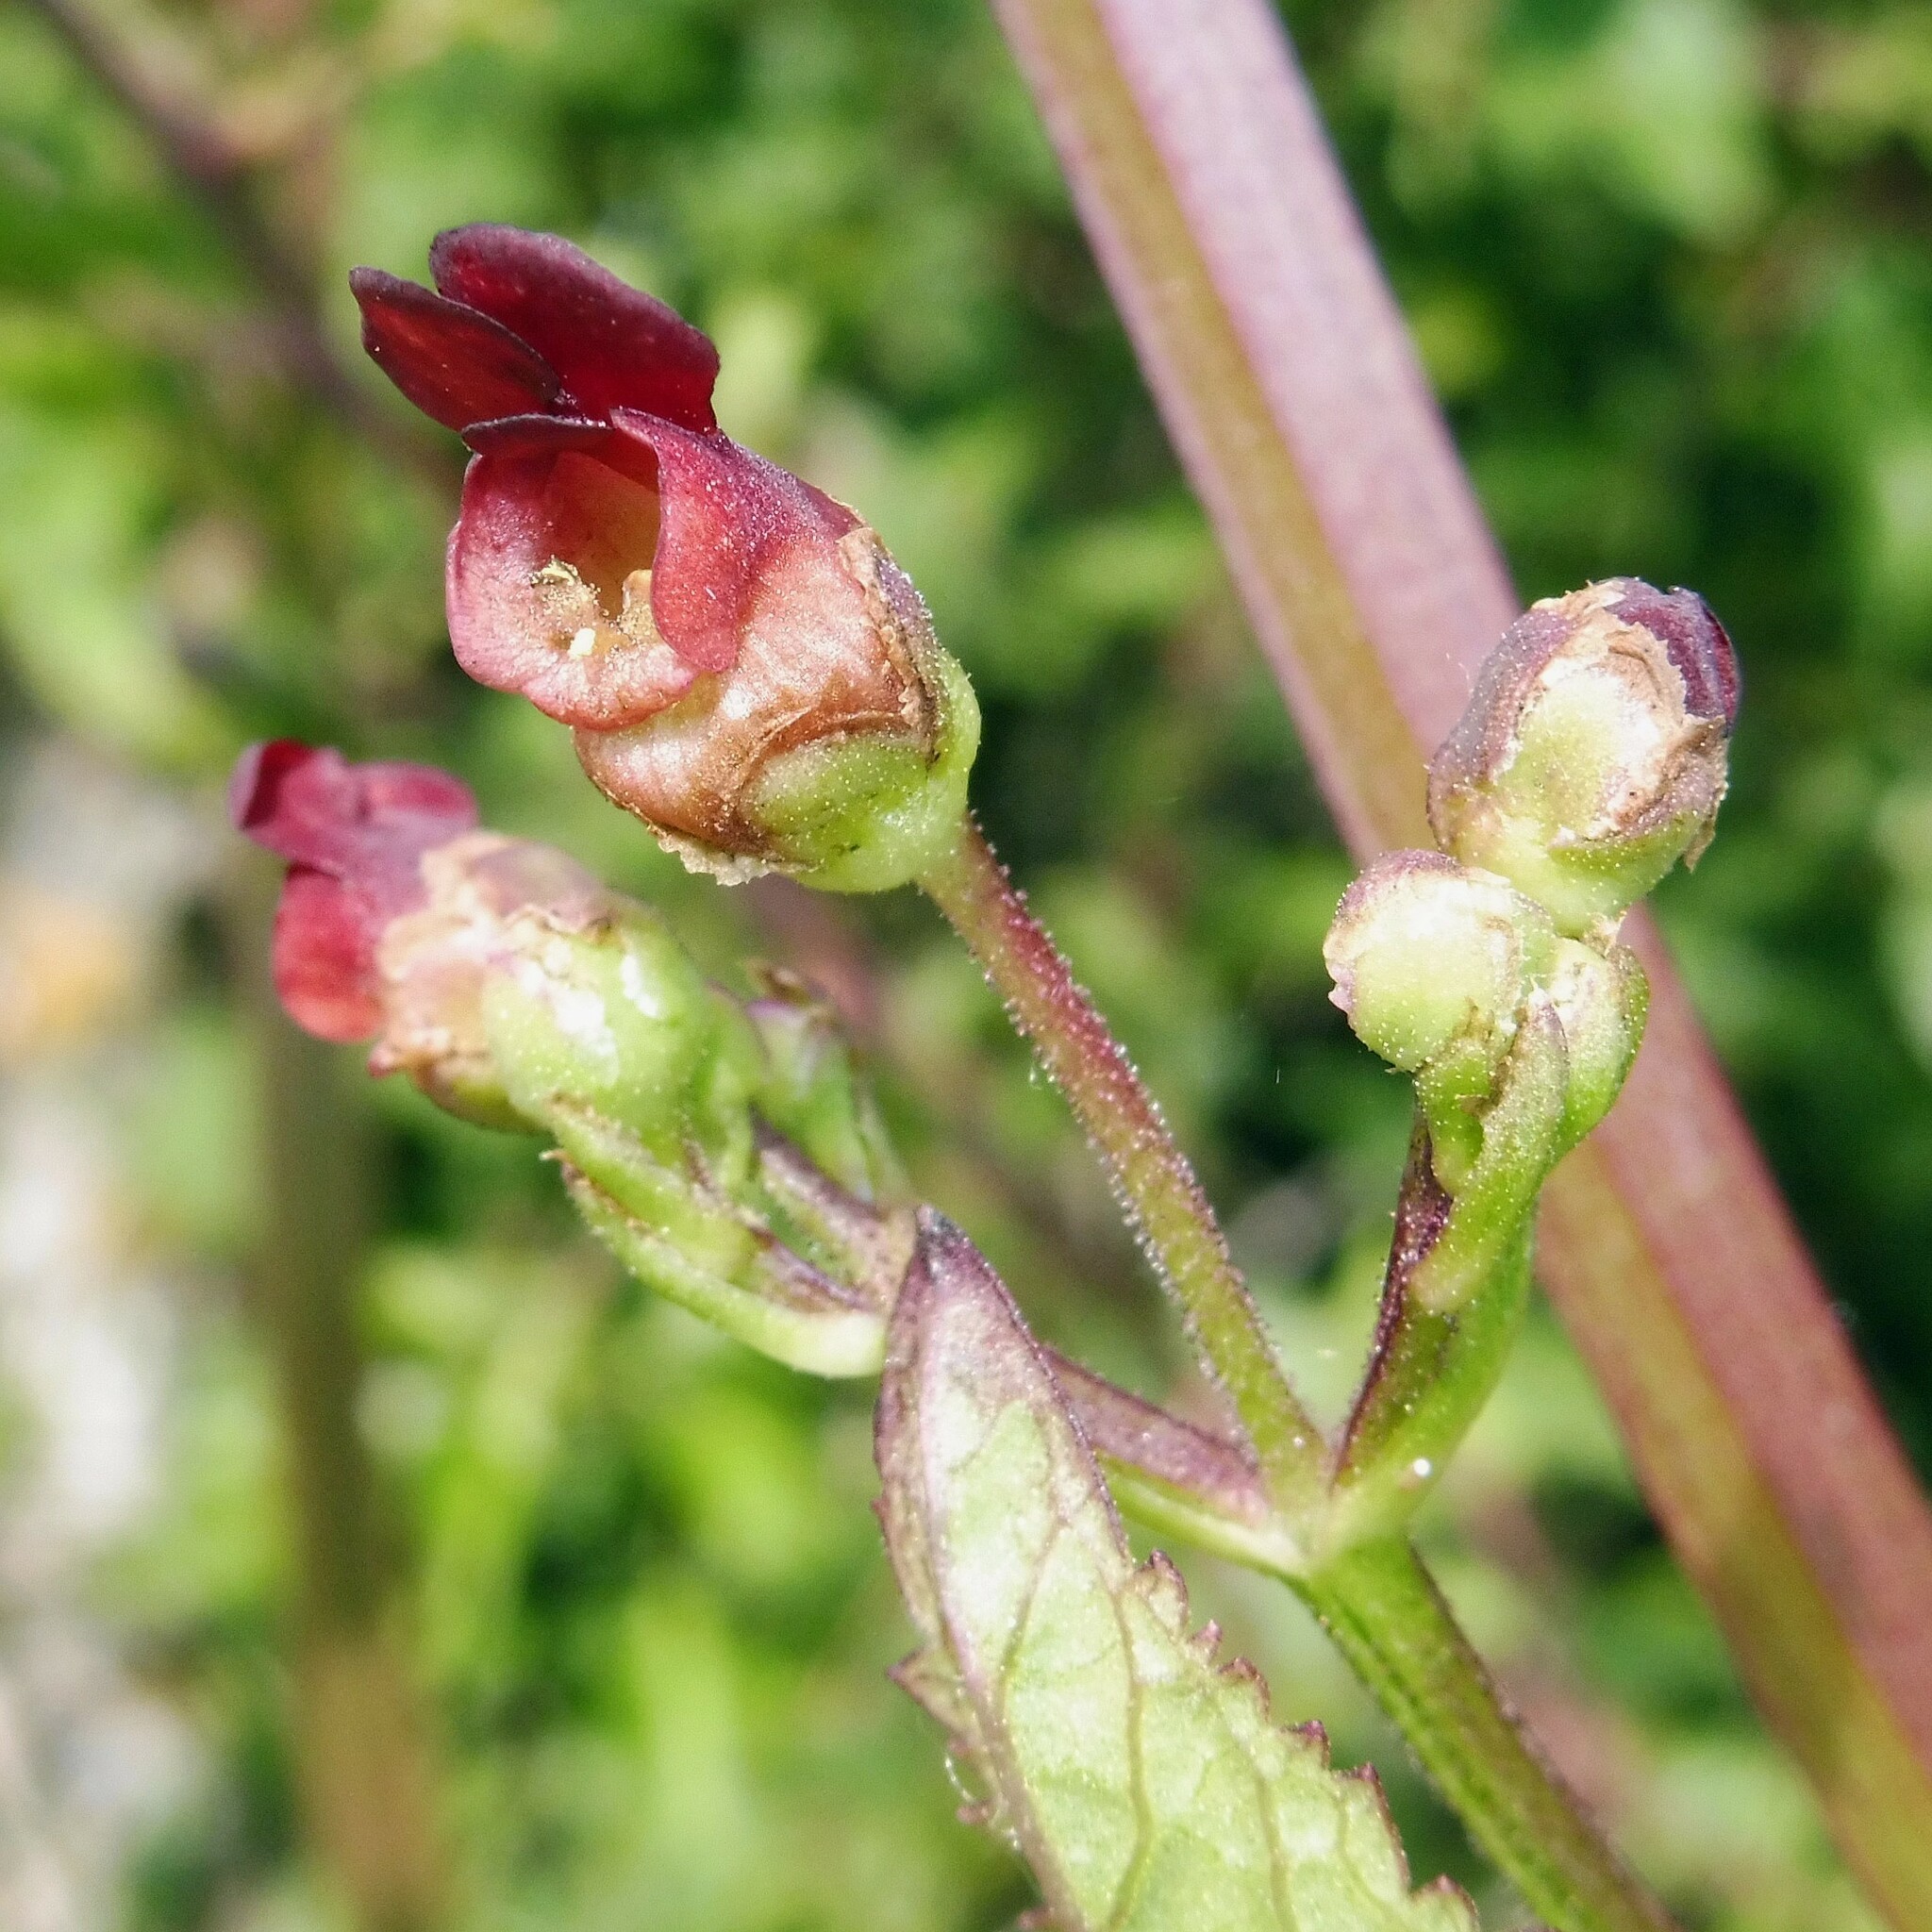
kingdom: Plantae
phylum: Tracheophyta
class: Magnoliopsida
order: Lamiales
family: Scrophulariaceae
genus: Scrophularia
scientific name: Scrophularia auriculata
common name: Water betony
